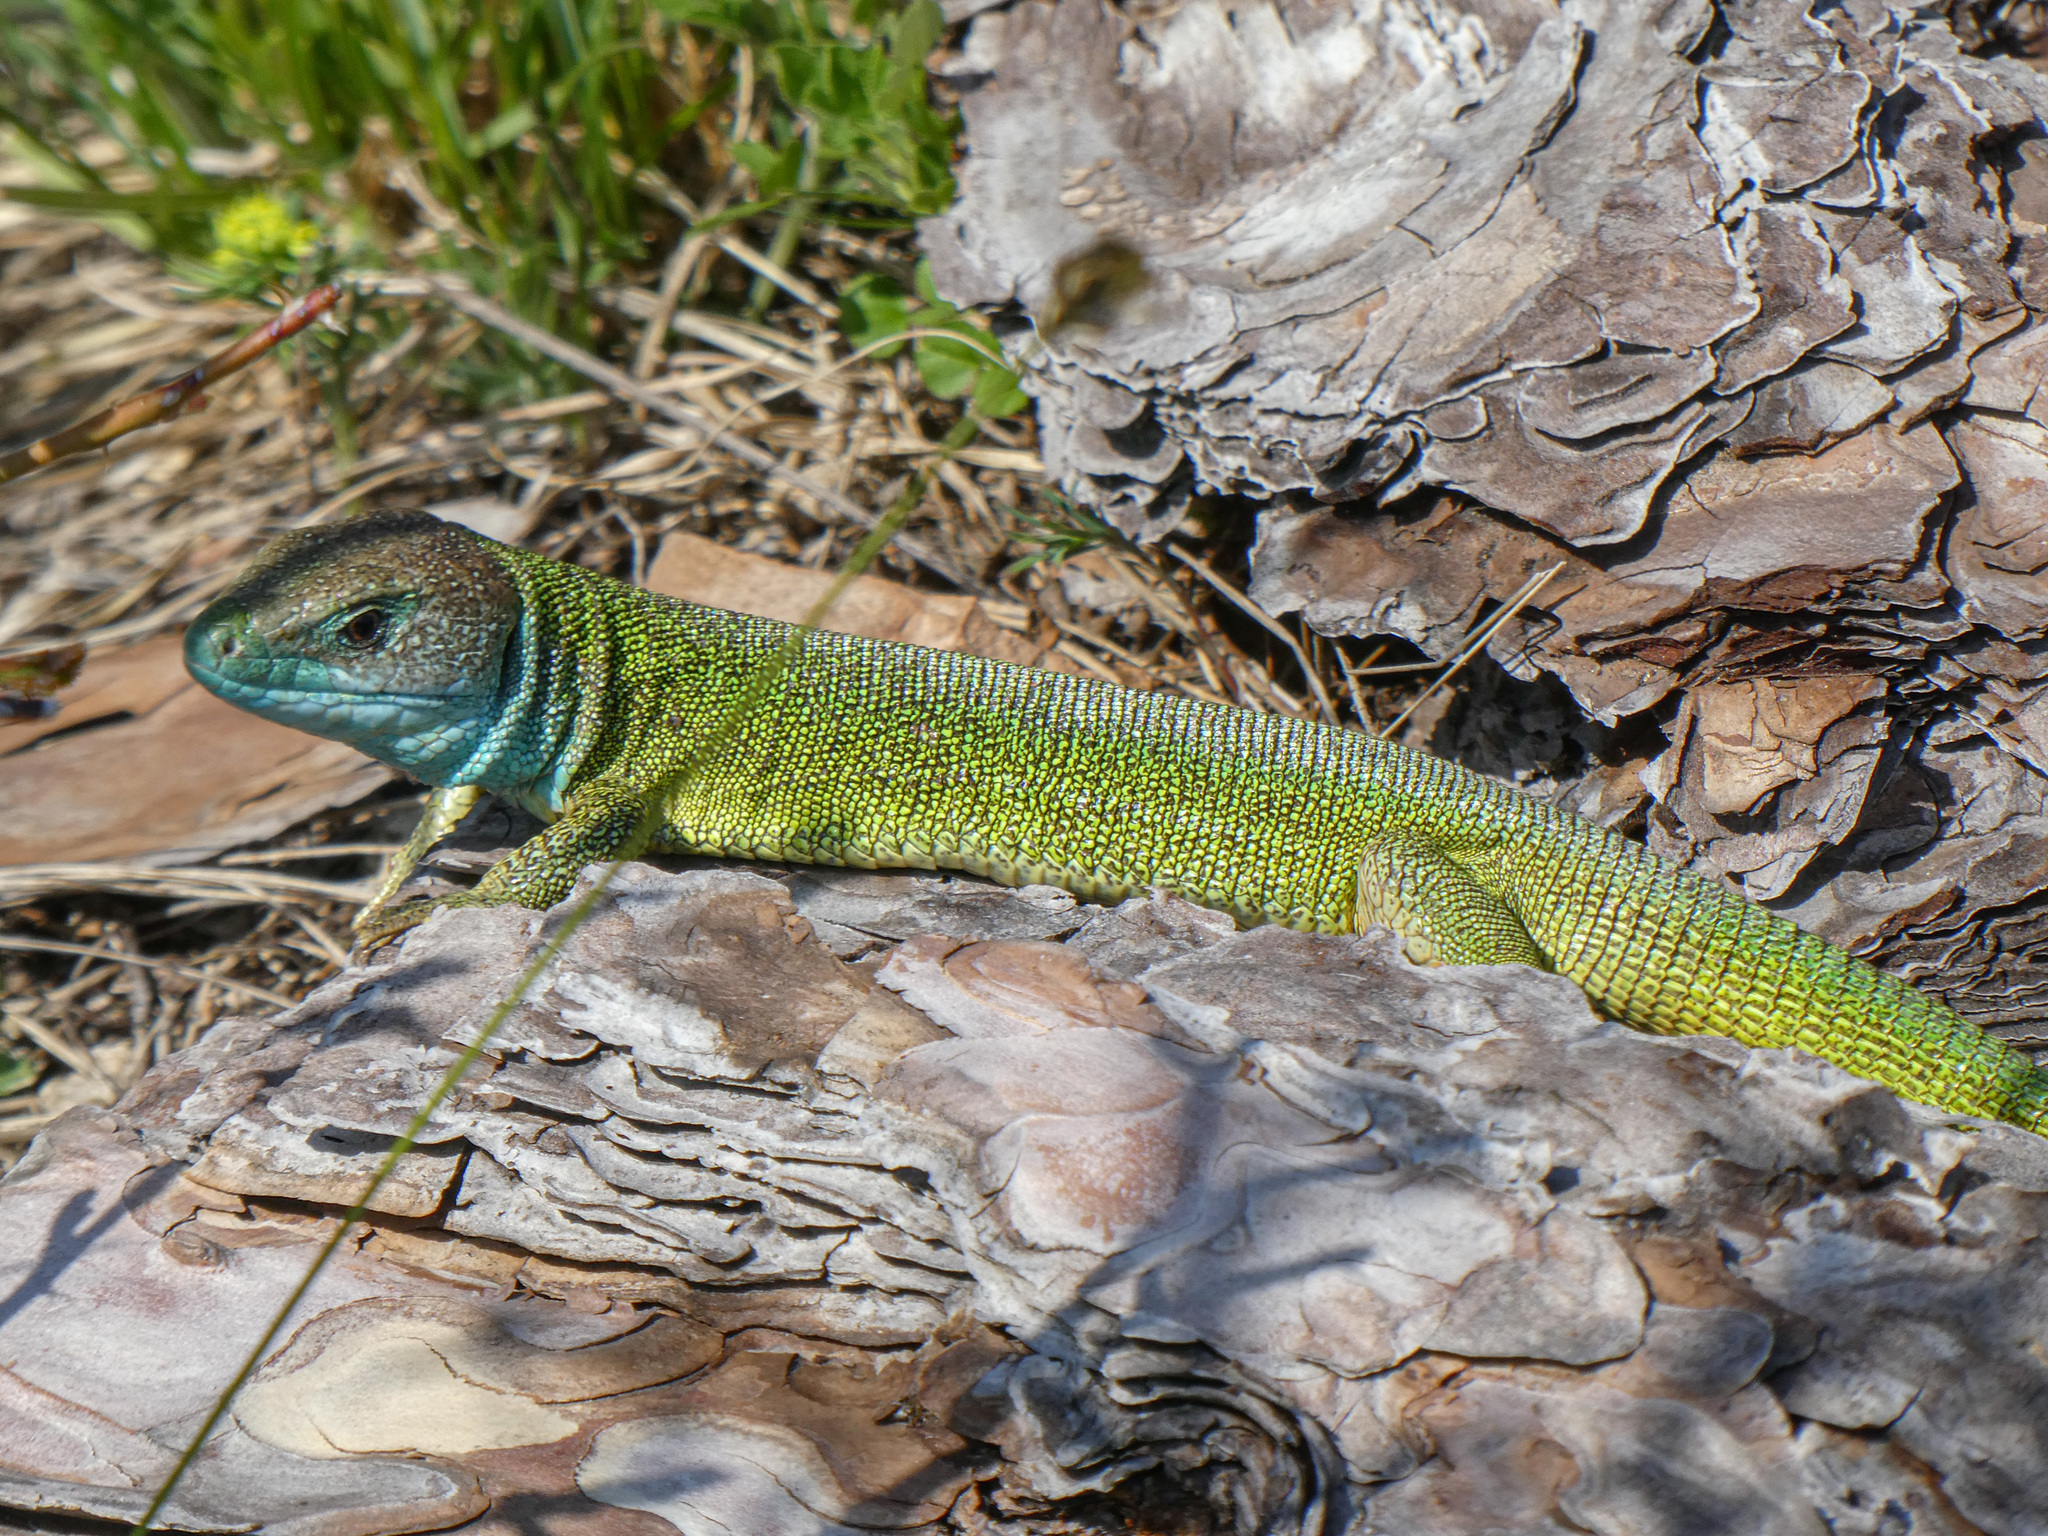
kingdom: Animalia
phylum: Chordata
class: Squamata
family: Lacertidae
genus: Lacerta
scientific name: Lacerta viridis
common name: European green lizard
